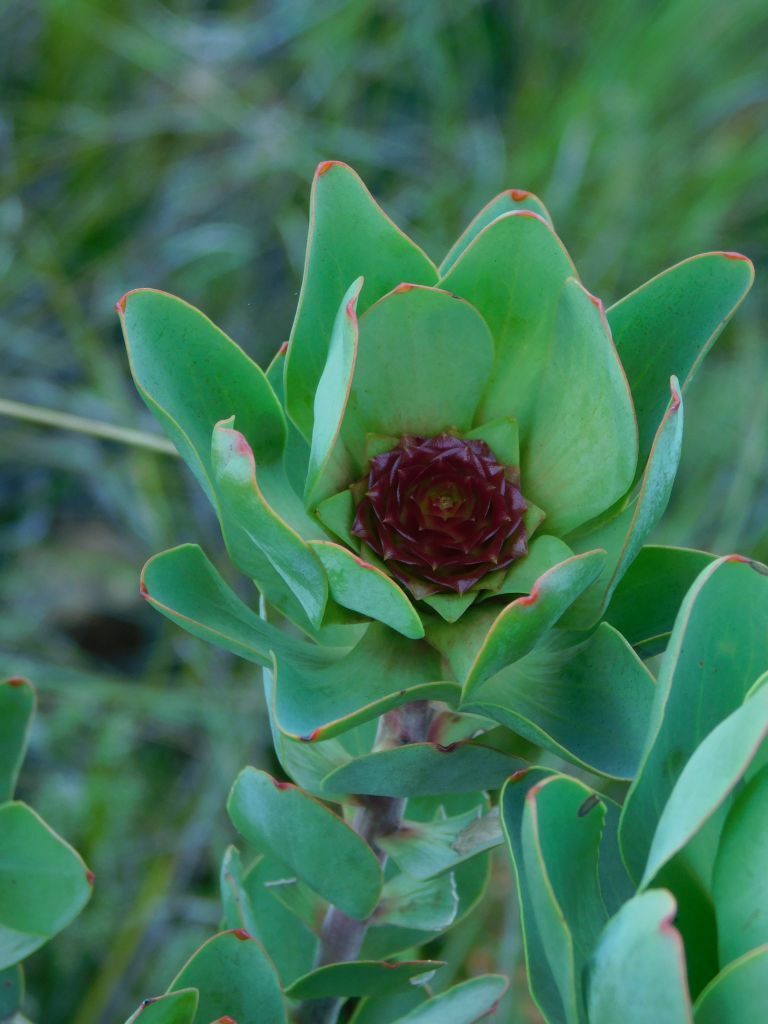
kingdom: Plantae
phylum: Tracheophyta
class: Magnoliopsida
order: Proteales
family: Proteaceae
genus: Leucadendron
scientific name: Leucadendron elimense
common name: Elim conebush
